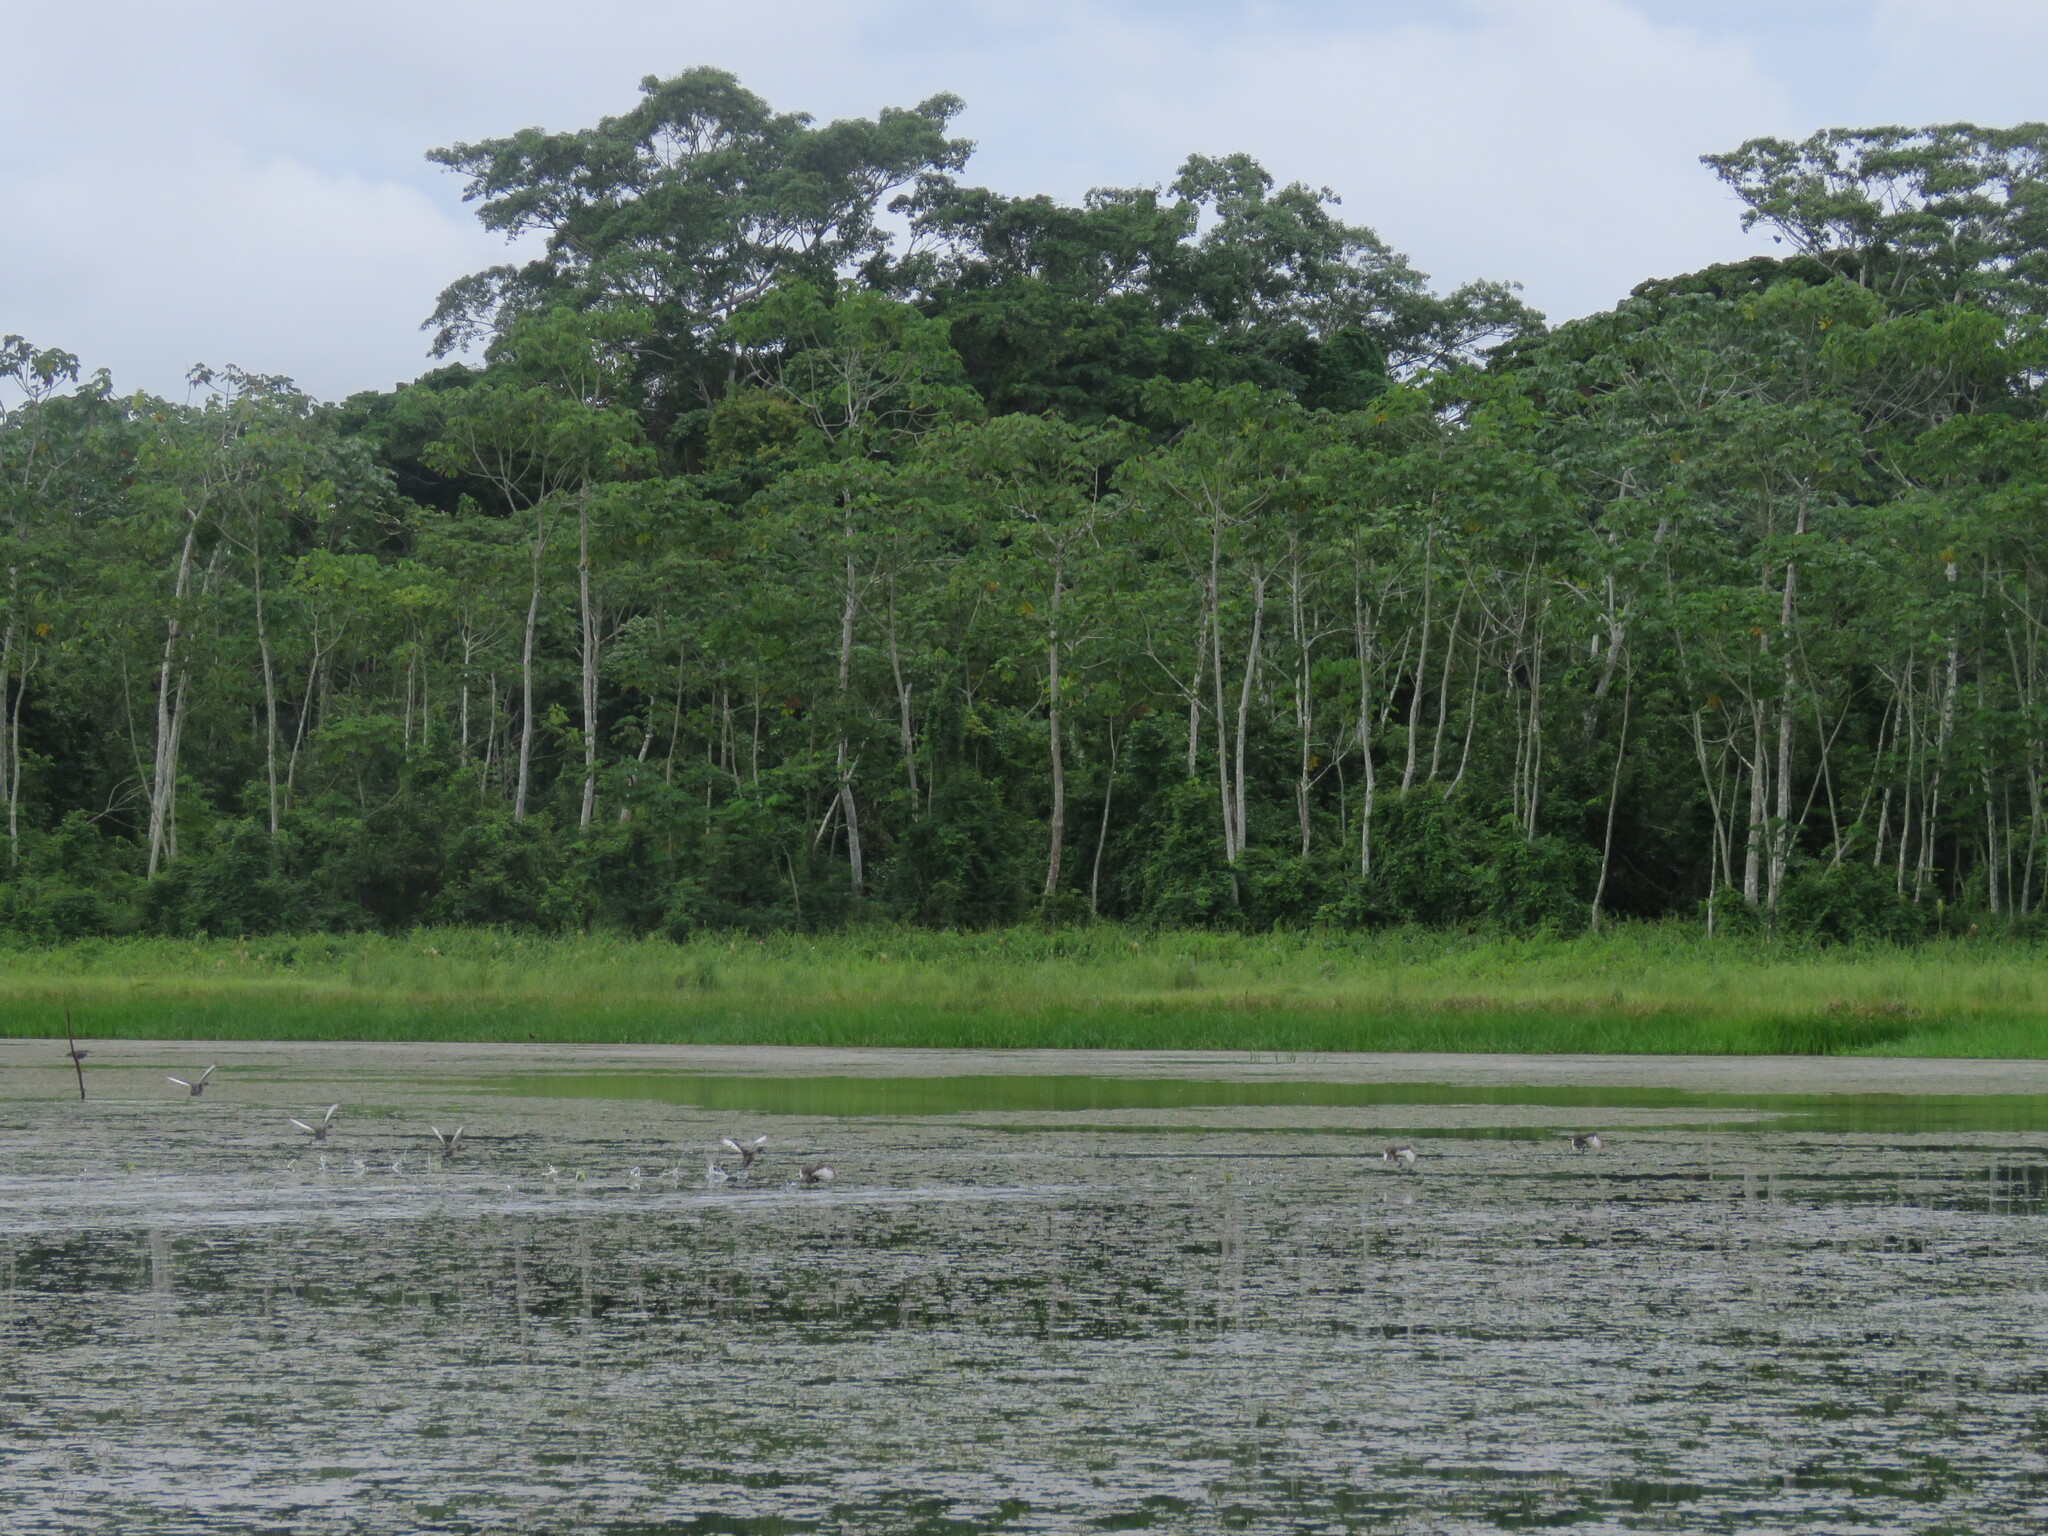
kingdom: Animalia
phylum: Chordata
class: Aves
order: Podicipediformes
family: Podicipedidae
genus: Tachybaptus
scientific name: Tachybaptus dominicus
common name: Least grebe
